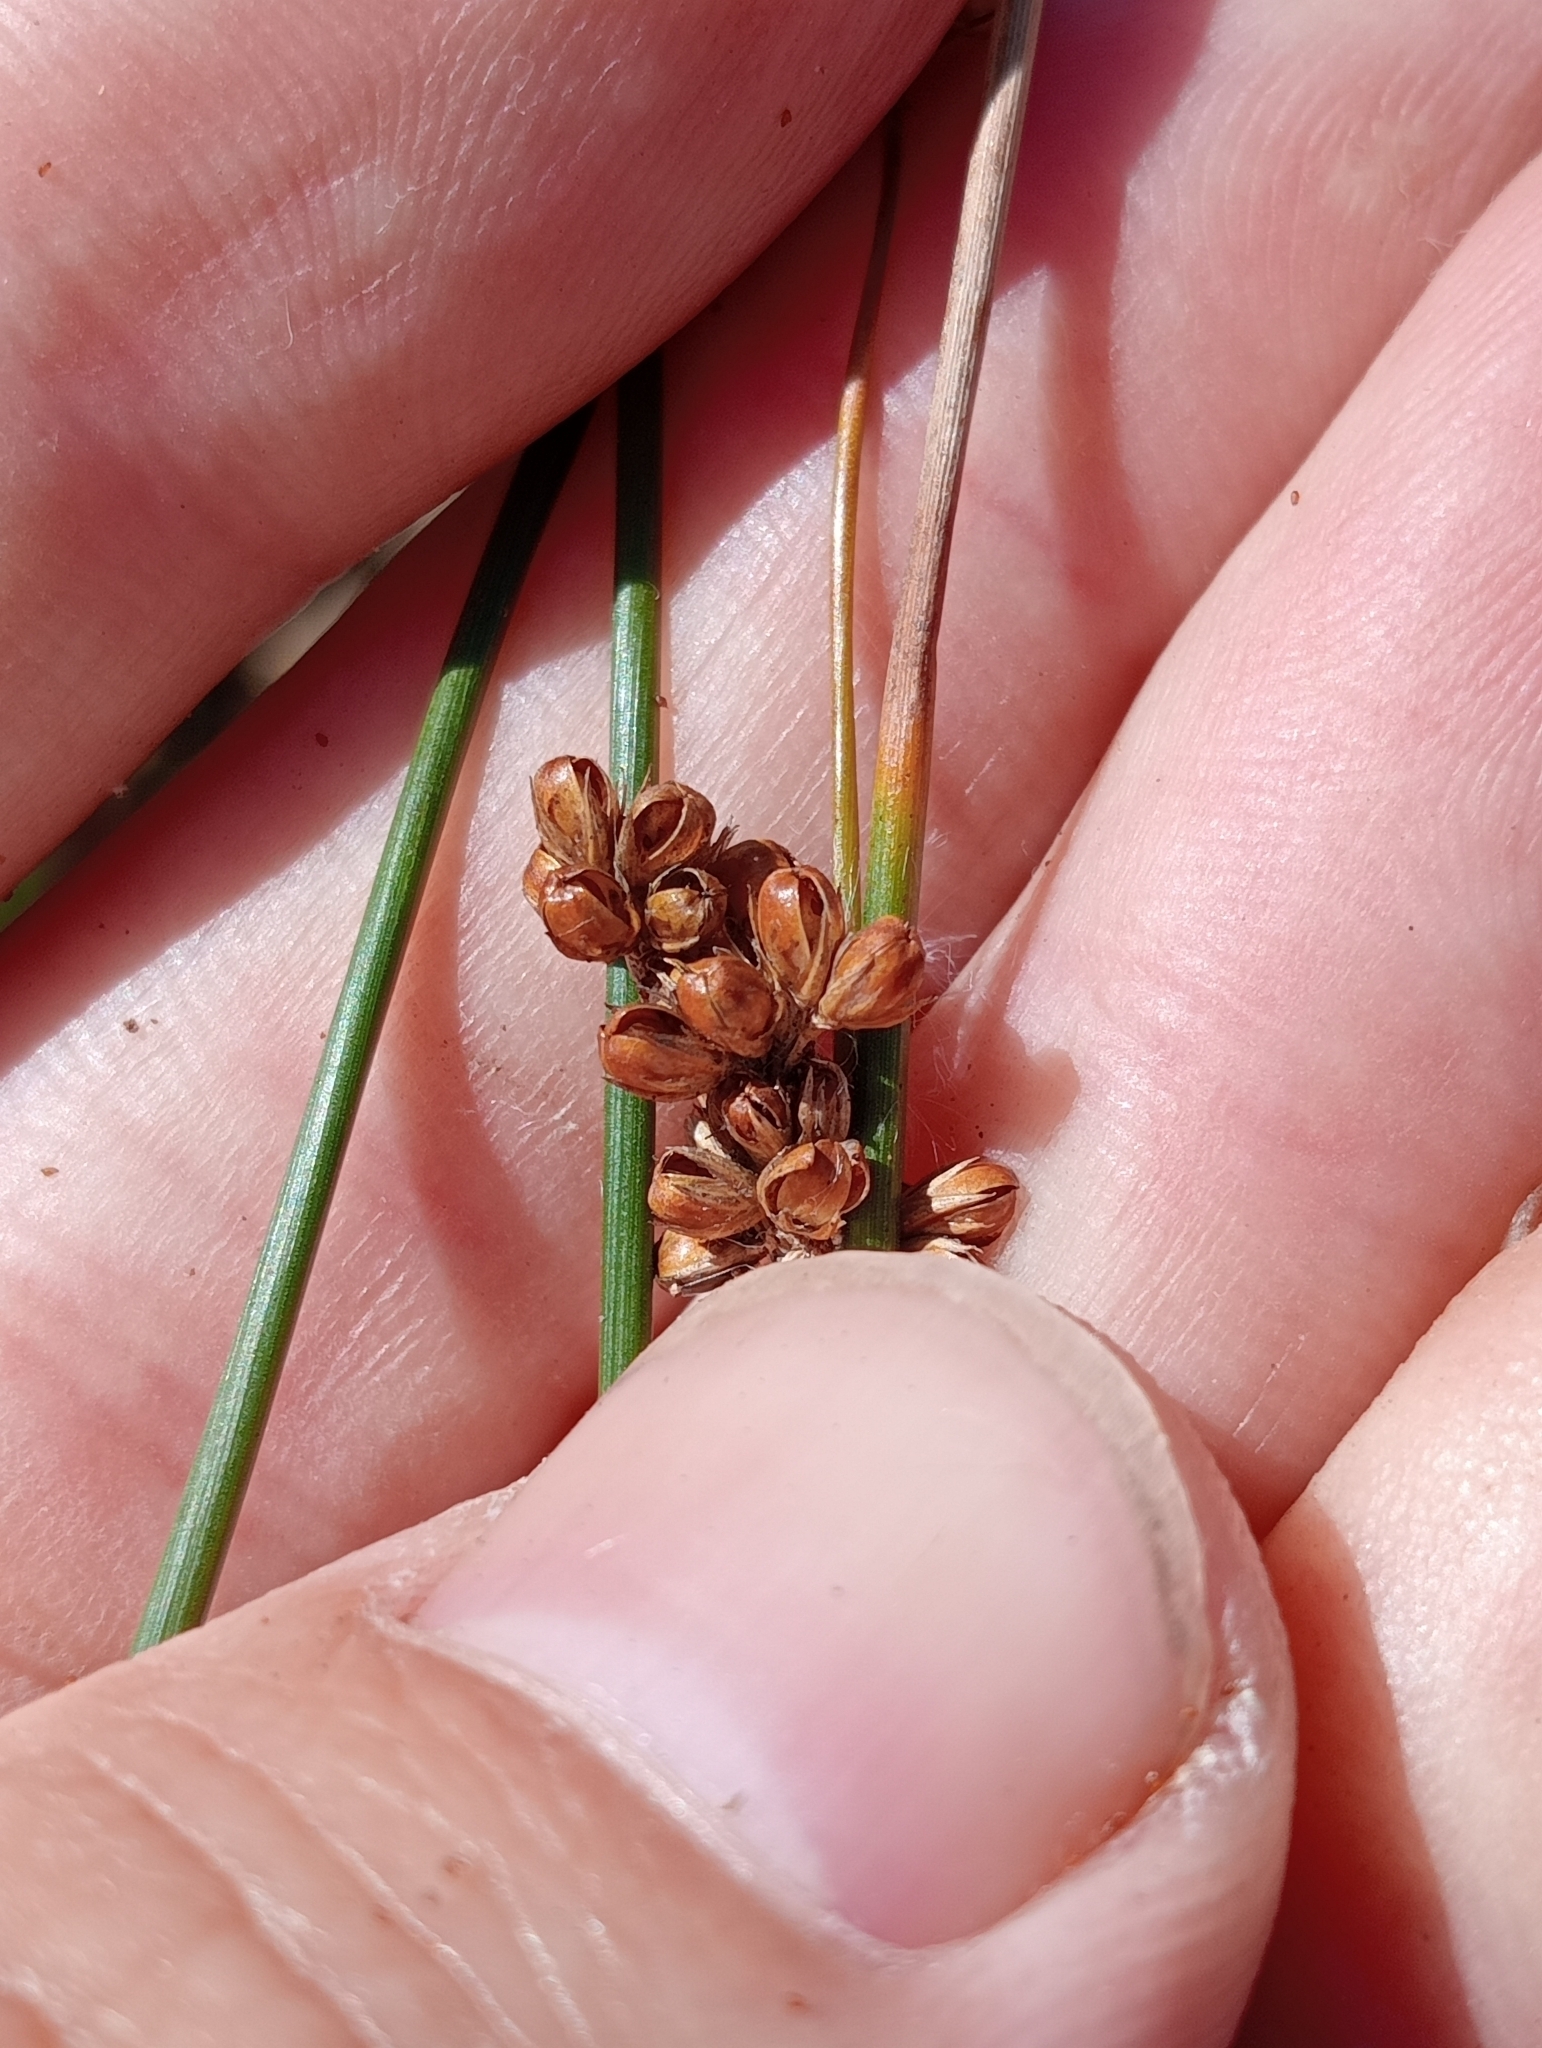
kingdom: Plantae
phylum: Tracheophyta
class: Liliopsida
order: Poales
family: Juncaceae
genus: Juncus
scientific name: Juncus distegus
